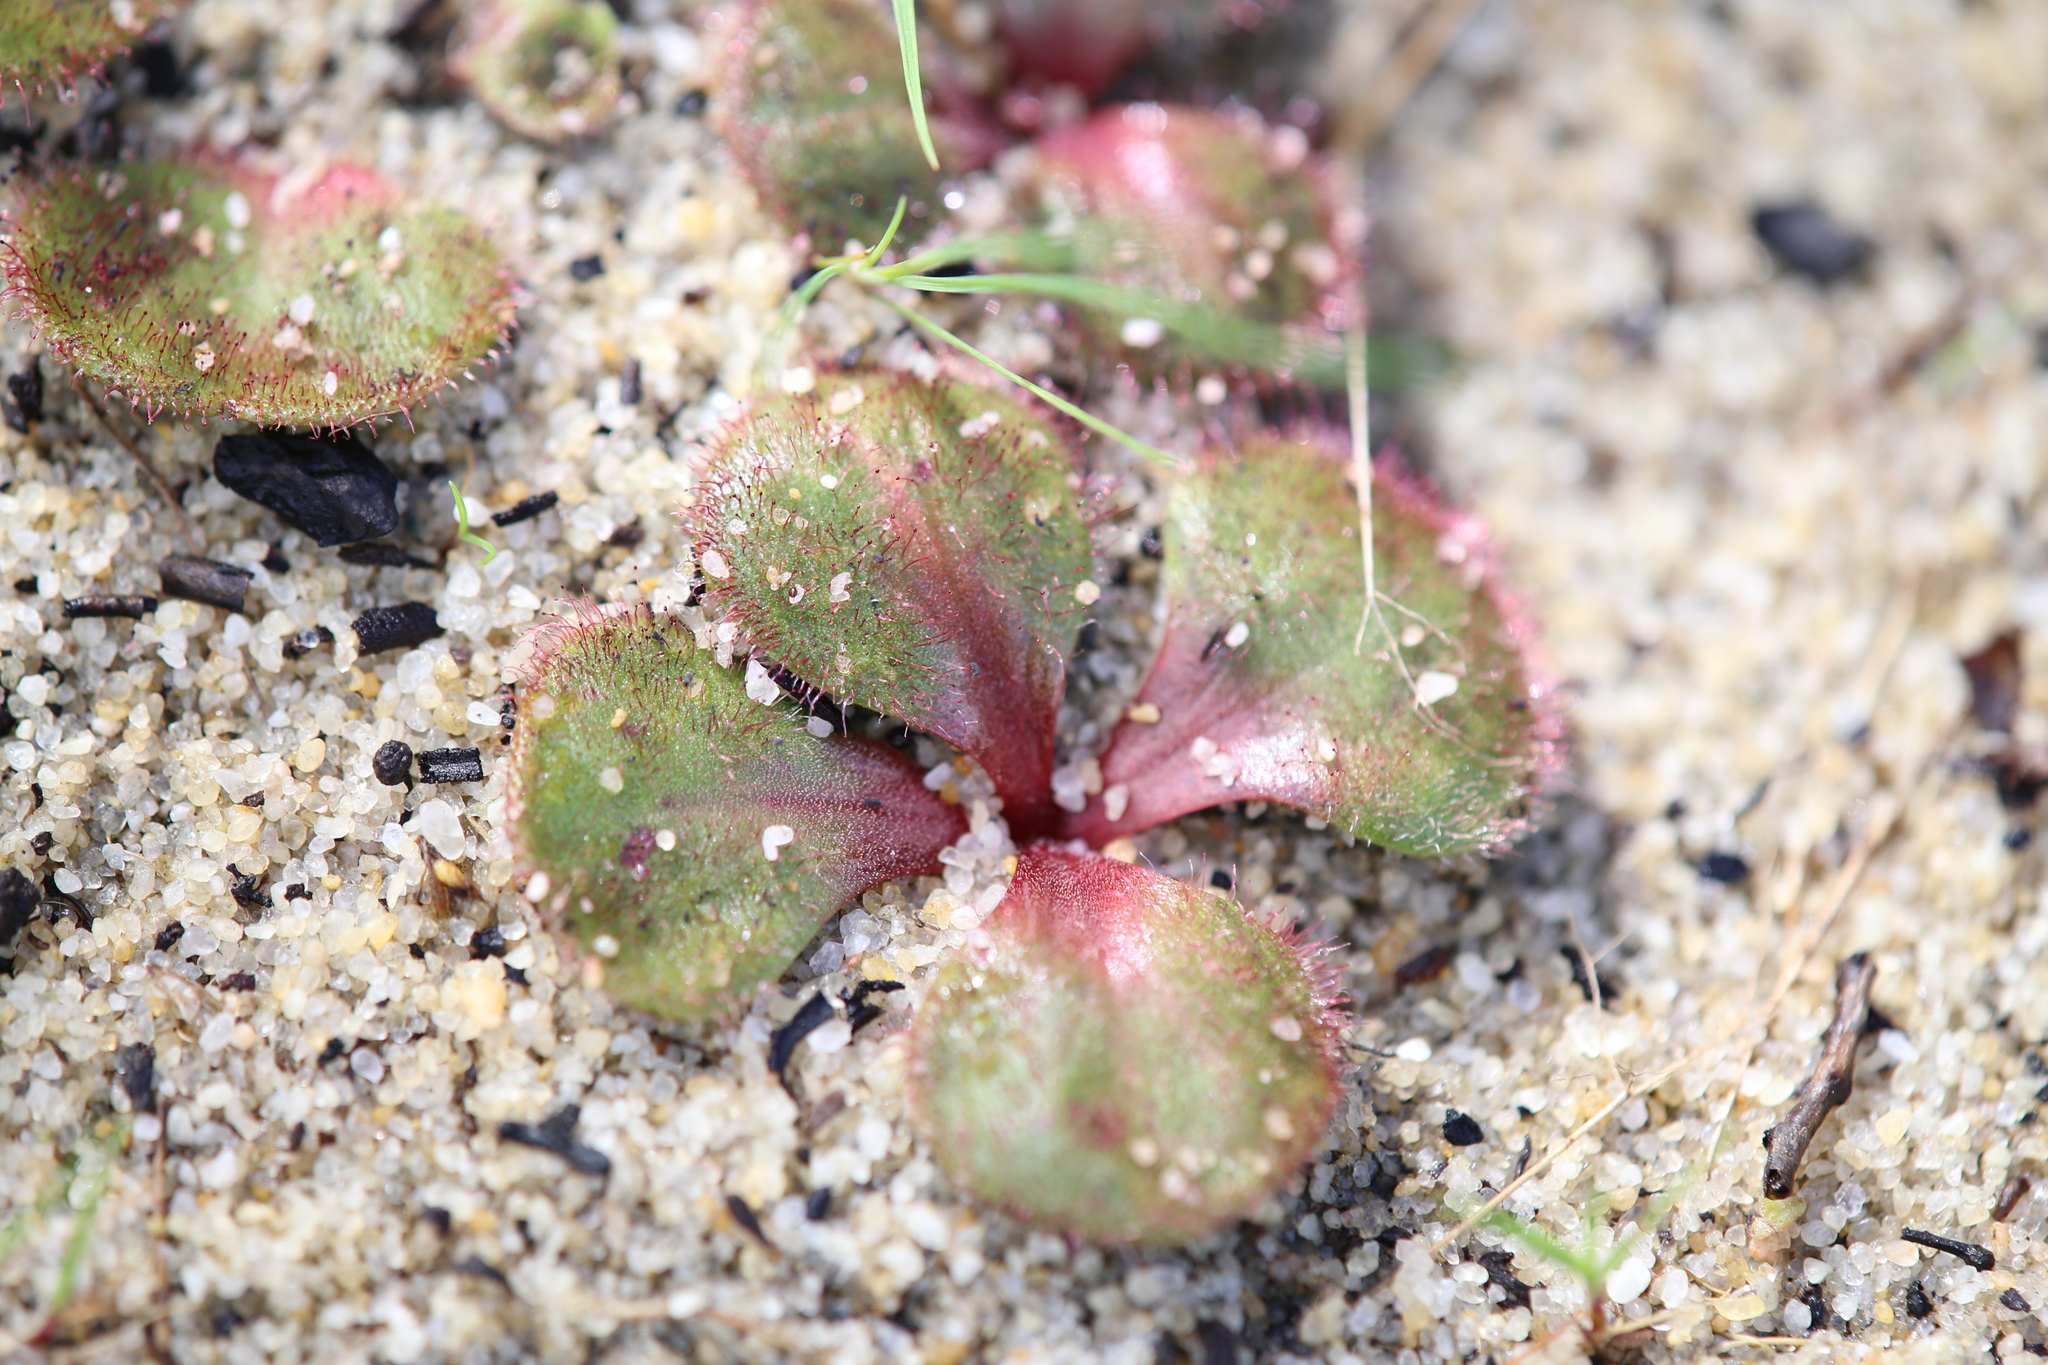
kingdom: Plantae
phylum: Tracheophyta
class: Magnoliopsida
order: Caryophyllales
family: Droseraceae
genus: Drosera
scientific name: Drosera erythrorhiza
